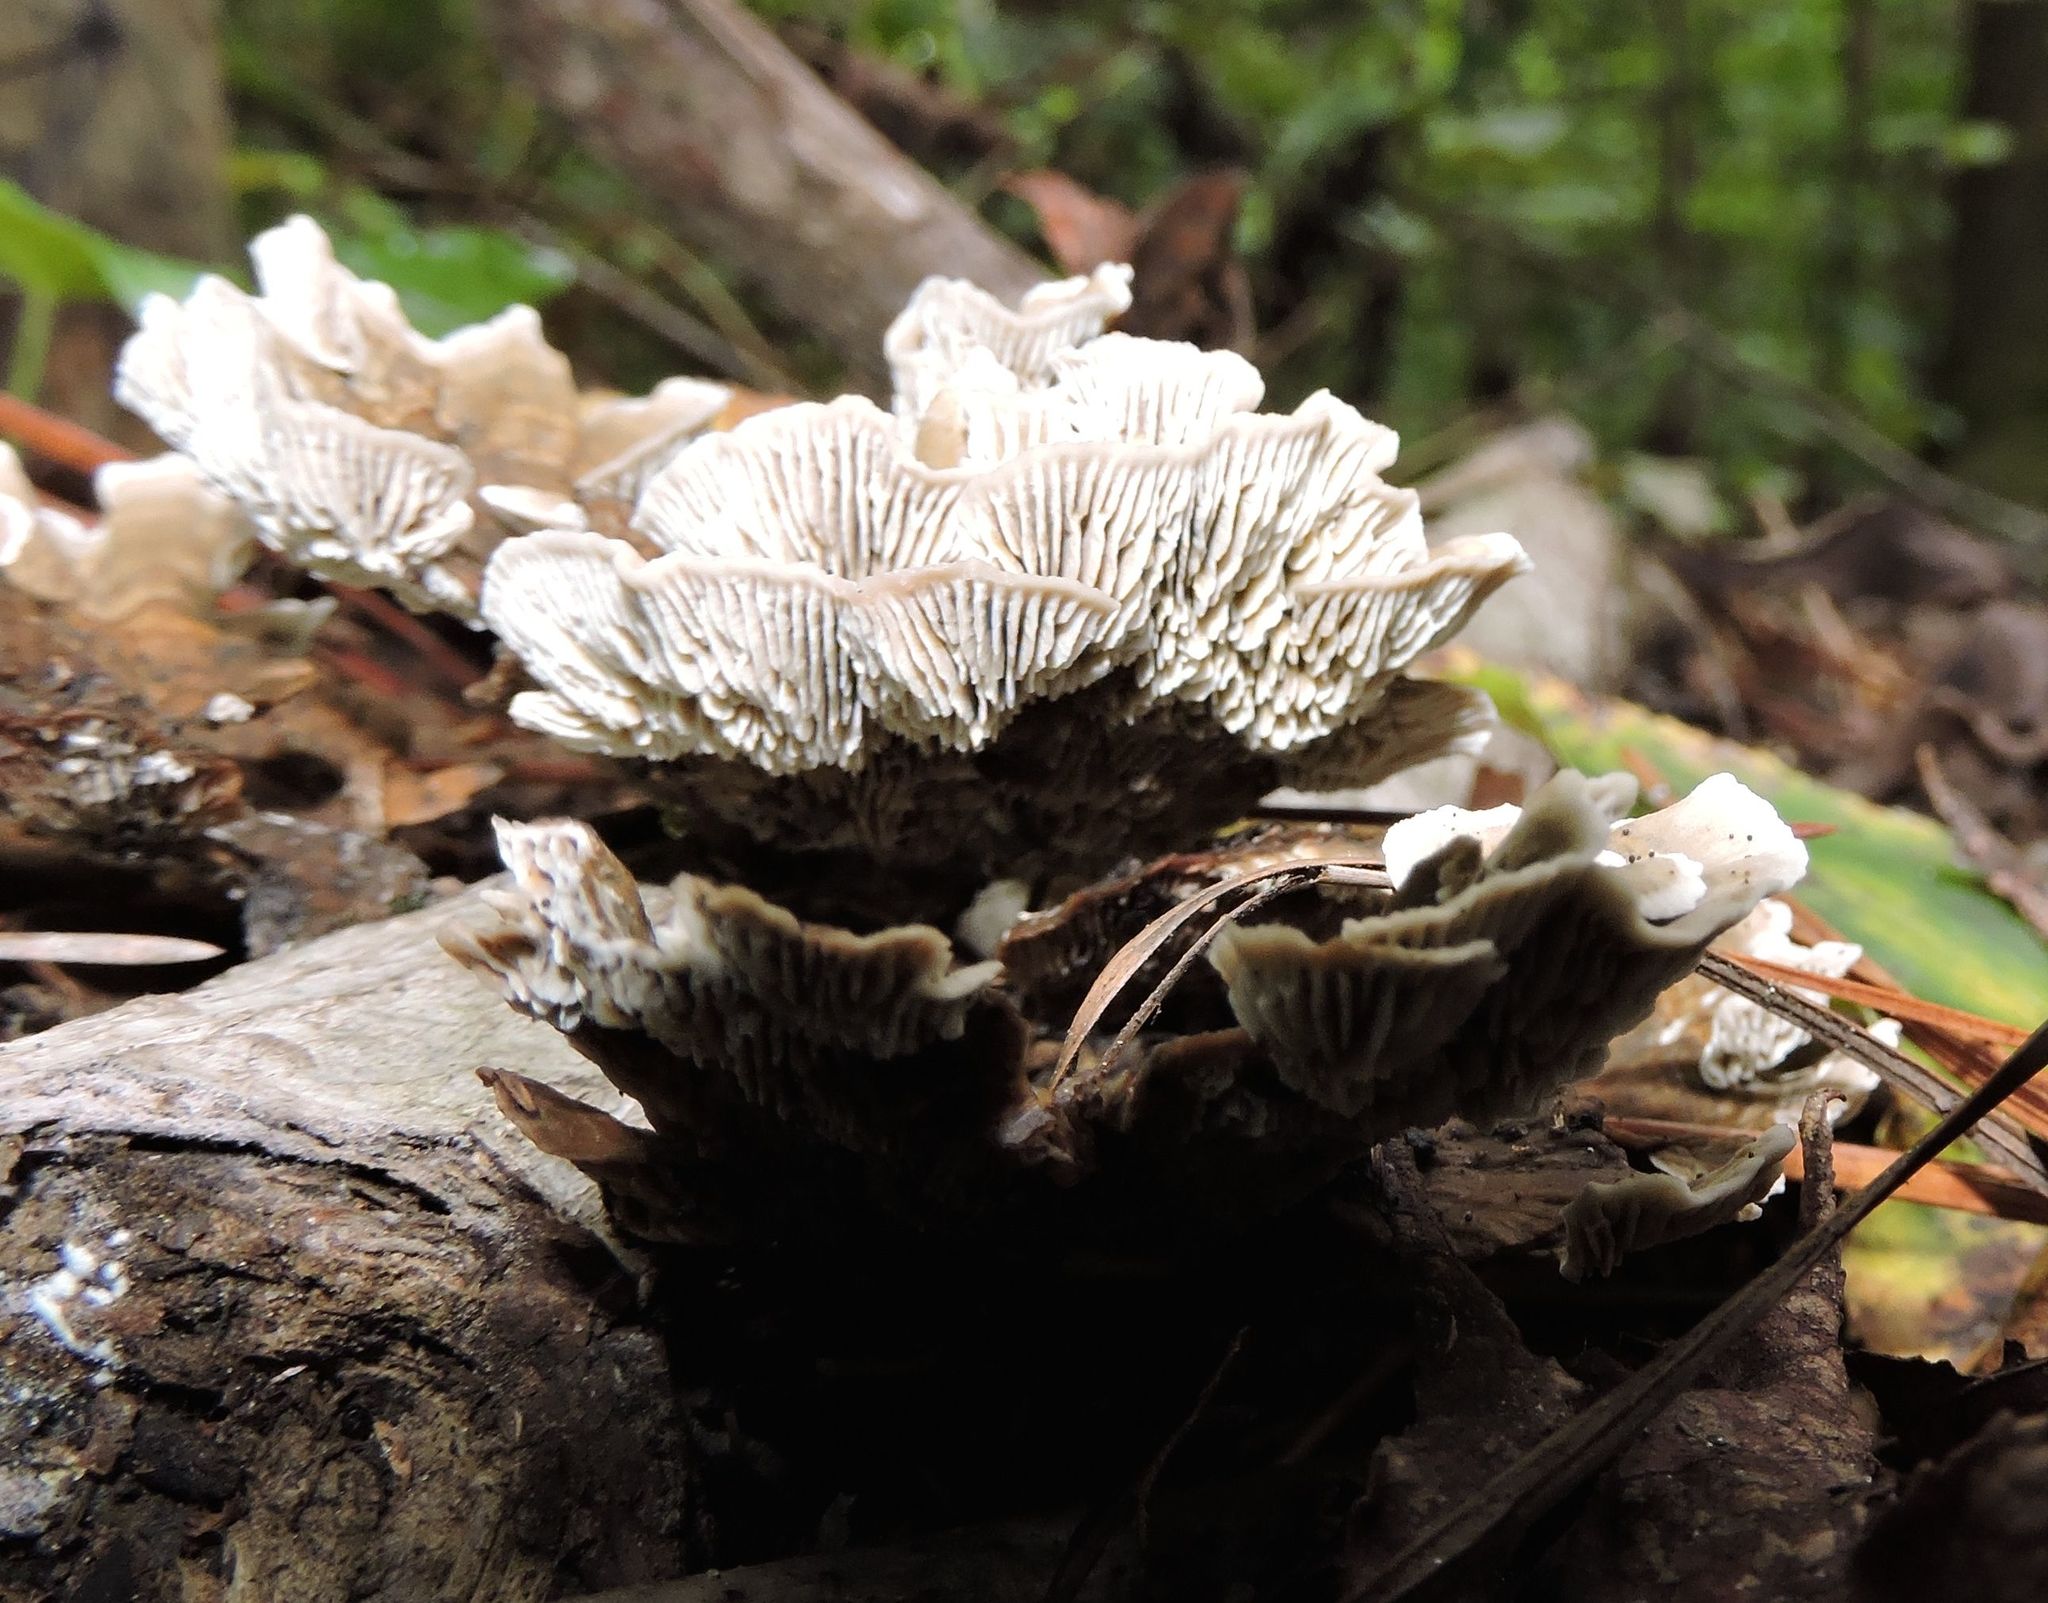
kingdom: Fungi
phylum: Basidiomycota
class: Agaricomycetes
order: Polyporales
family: Polyporaceae
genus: Lenzites
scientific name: Lenzites betulinus
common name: Birch mazegill
